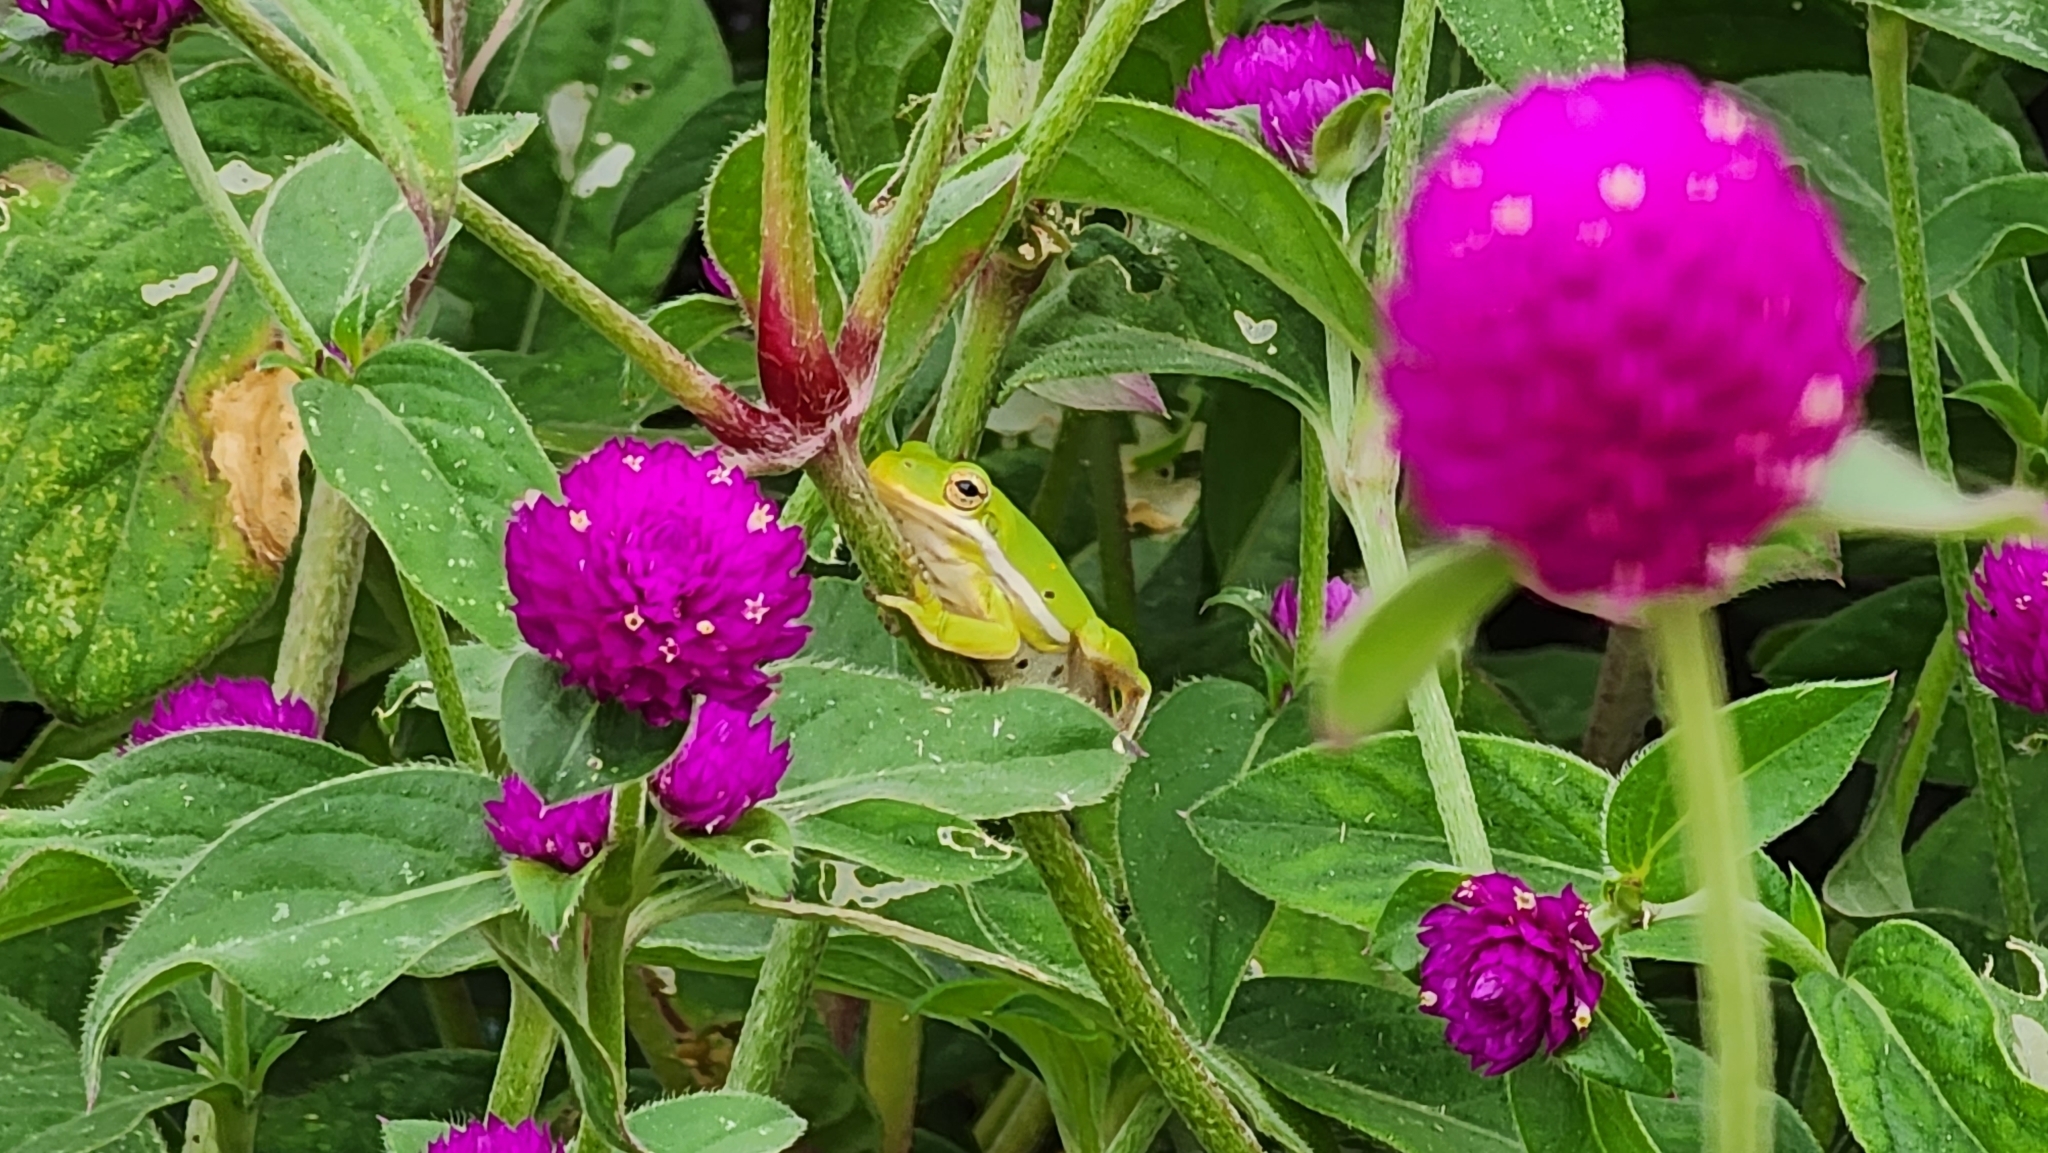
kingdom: Animalia
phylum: Chordata
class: Amphibia
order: Anura
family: Hylidae
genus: Dryophytes
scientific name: Dryophytes cinereus
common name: Green treefrog
